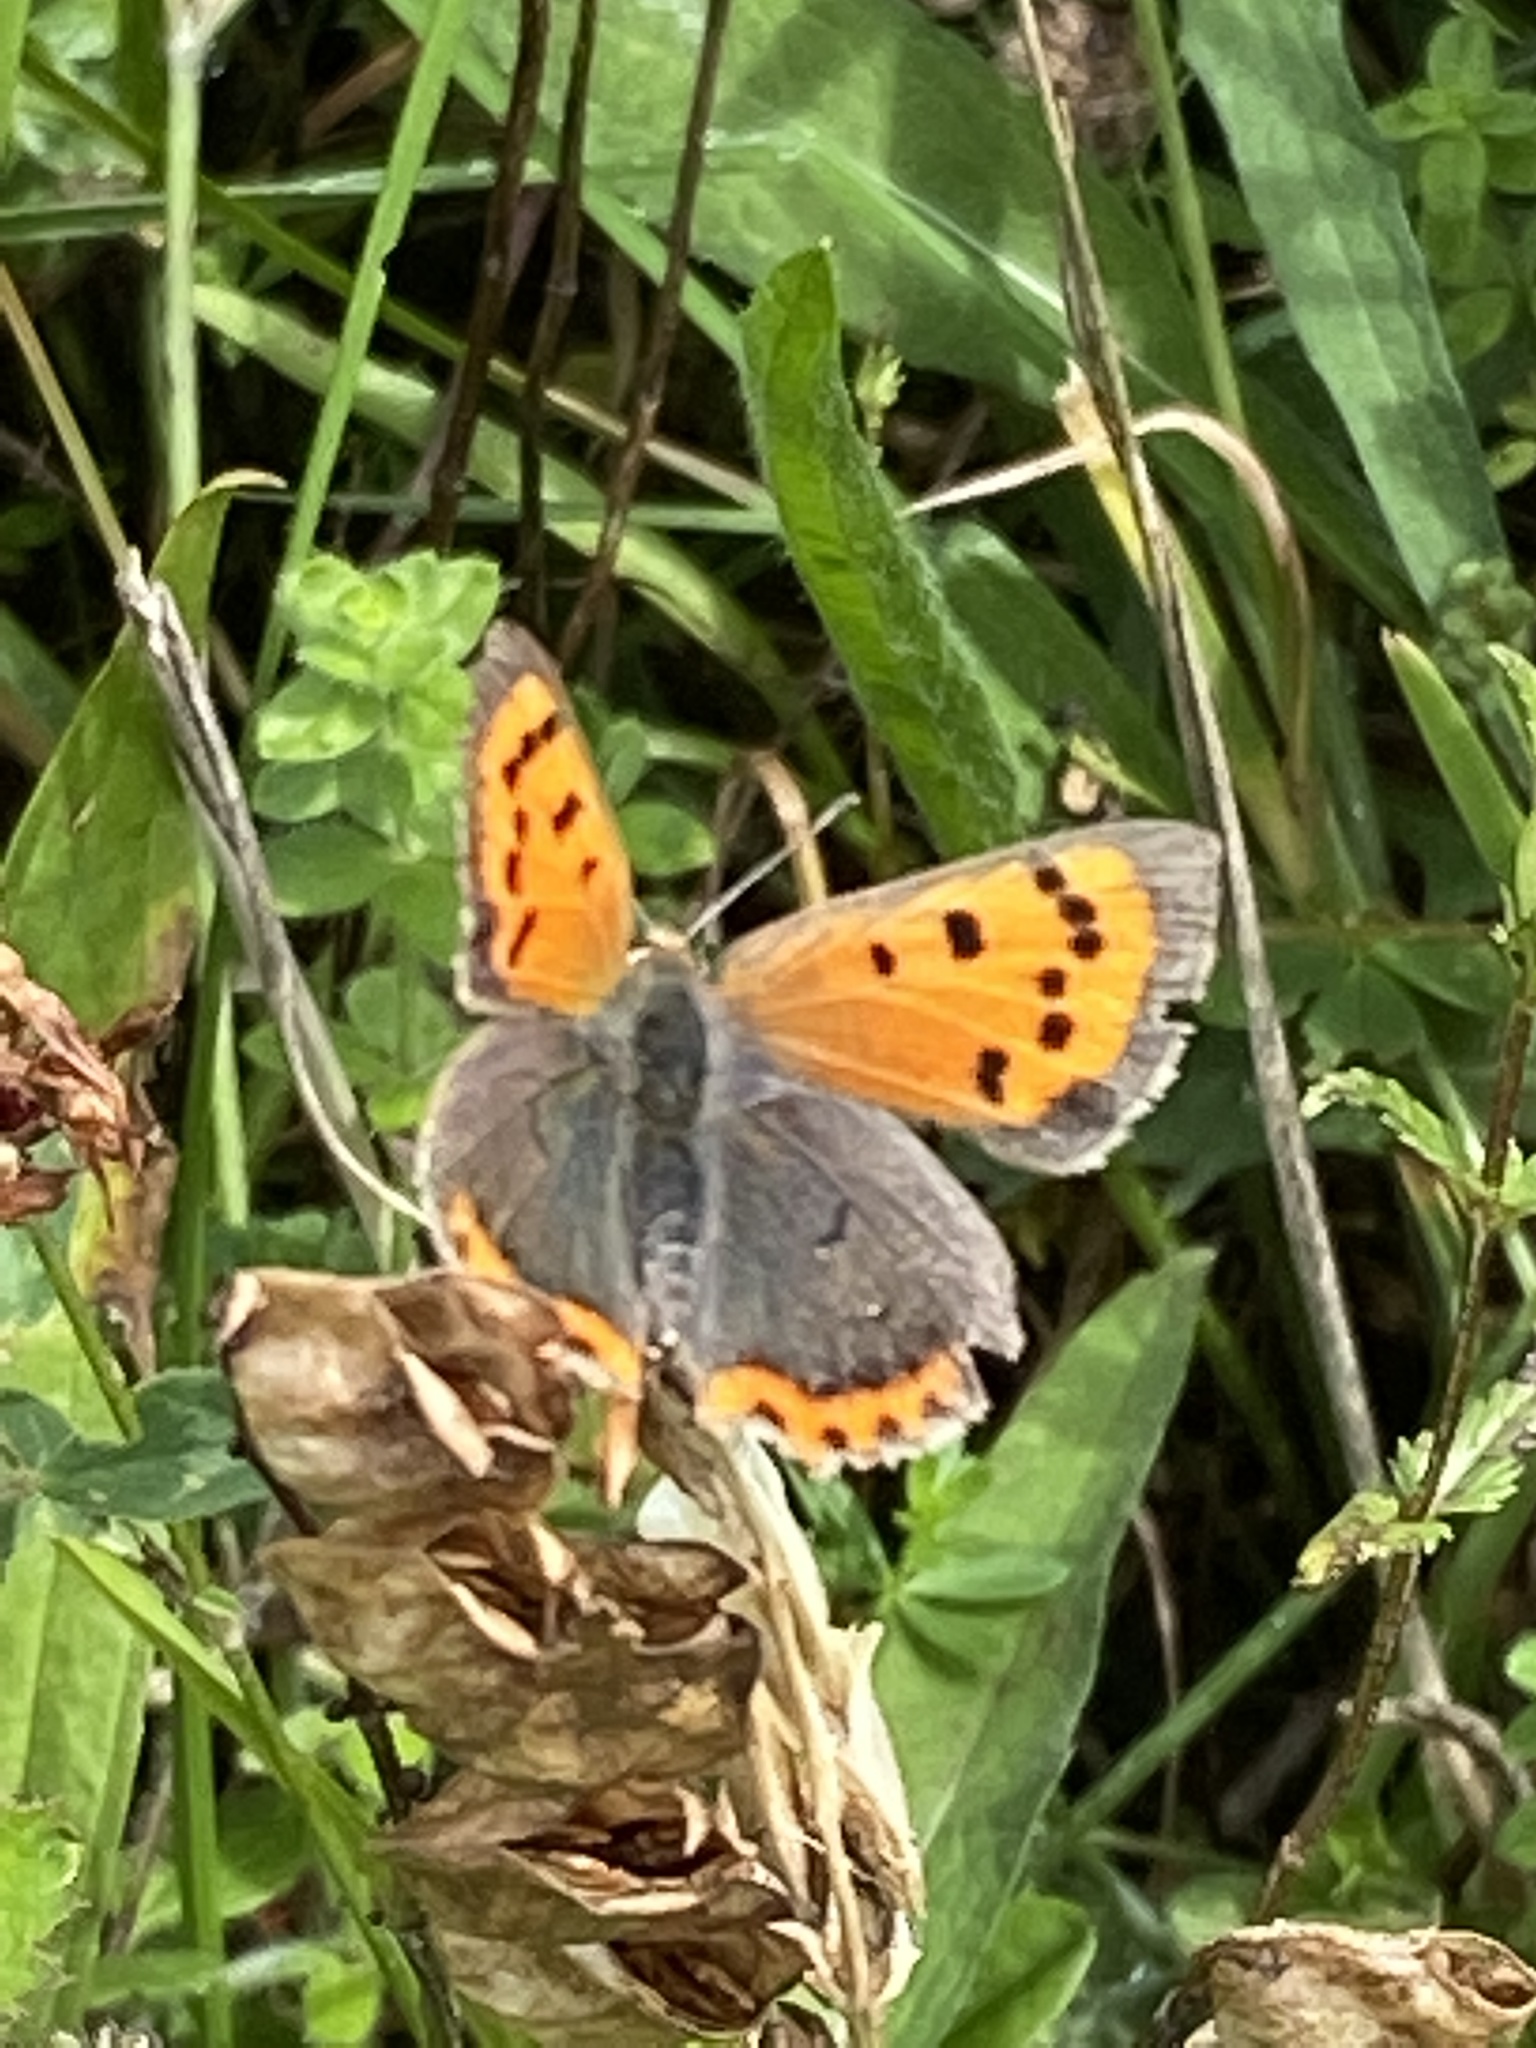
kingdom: Animalia
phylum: Arthropoda
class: Insecta
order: Lepidoptera
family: Lycaenidae
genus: Lycaena
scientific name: Lycaena phlaeas
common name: Small copper
